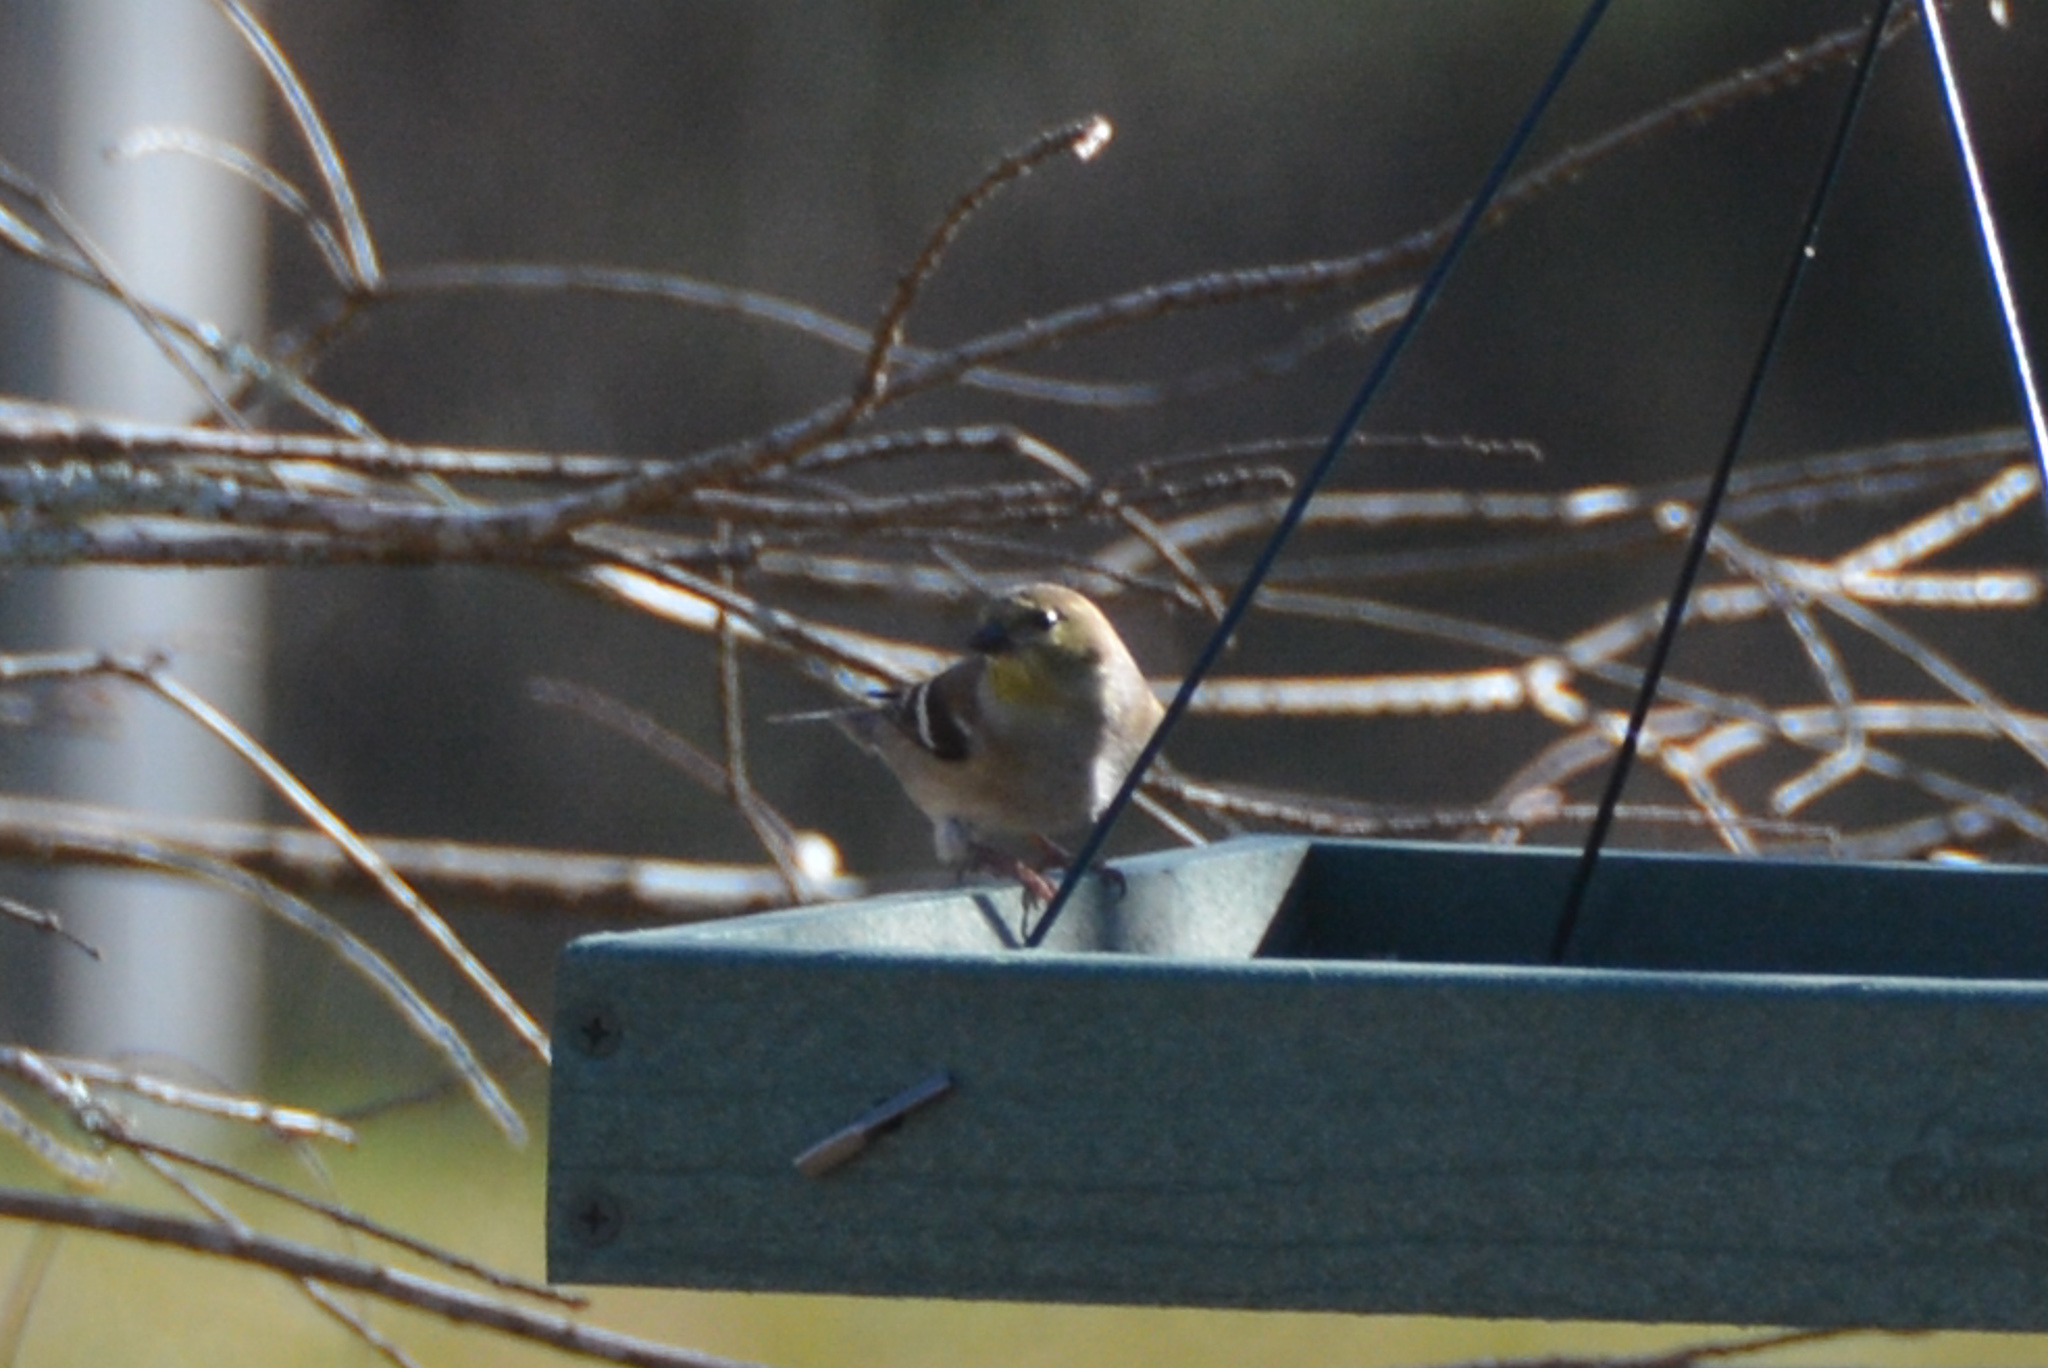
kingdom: Animalia
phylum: Chordata
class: Aves
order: Passeriformes
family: Fringillidae
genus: Spinus
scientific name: Spinus tristis
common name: American goldfinch
